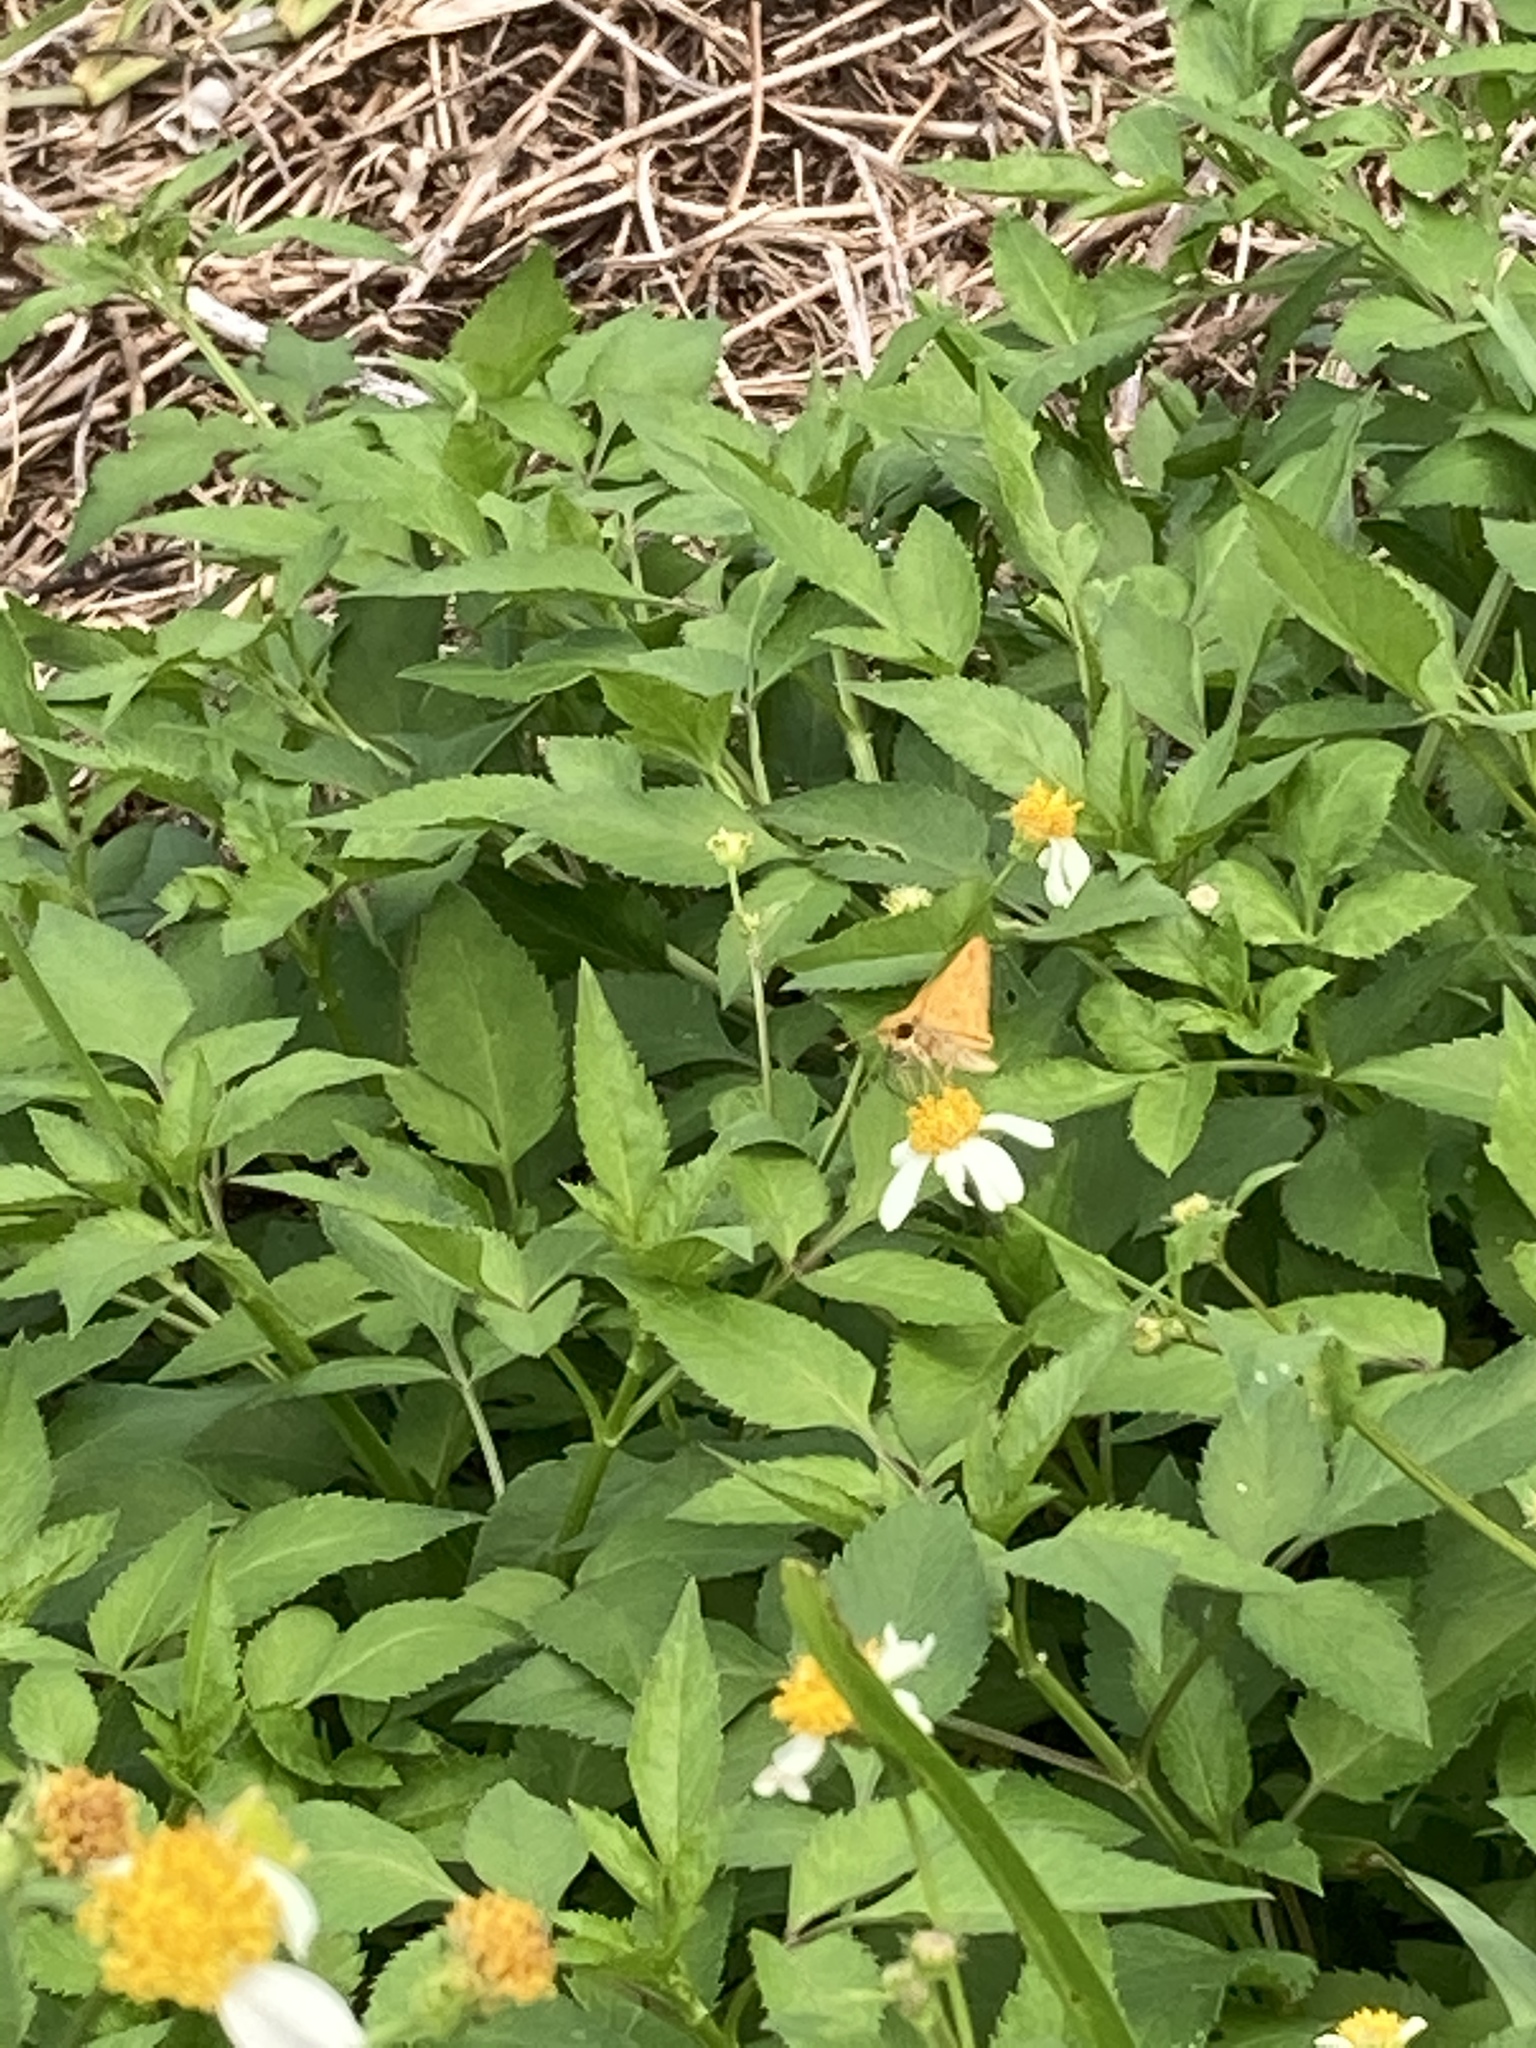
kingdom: Animalia
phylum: Arthropoda
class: Insecta
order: Lepidoptera
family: Hesperiidae
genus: Hylephila
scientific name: Hylephila phyleus
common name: Fiery skipper
